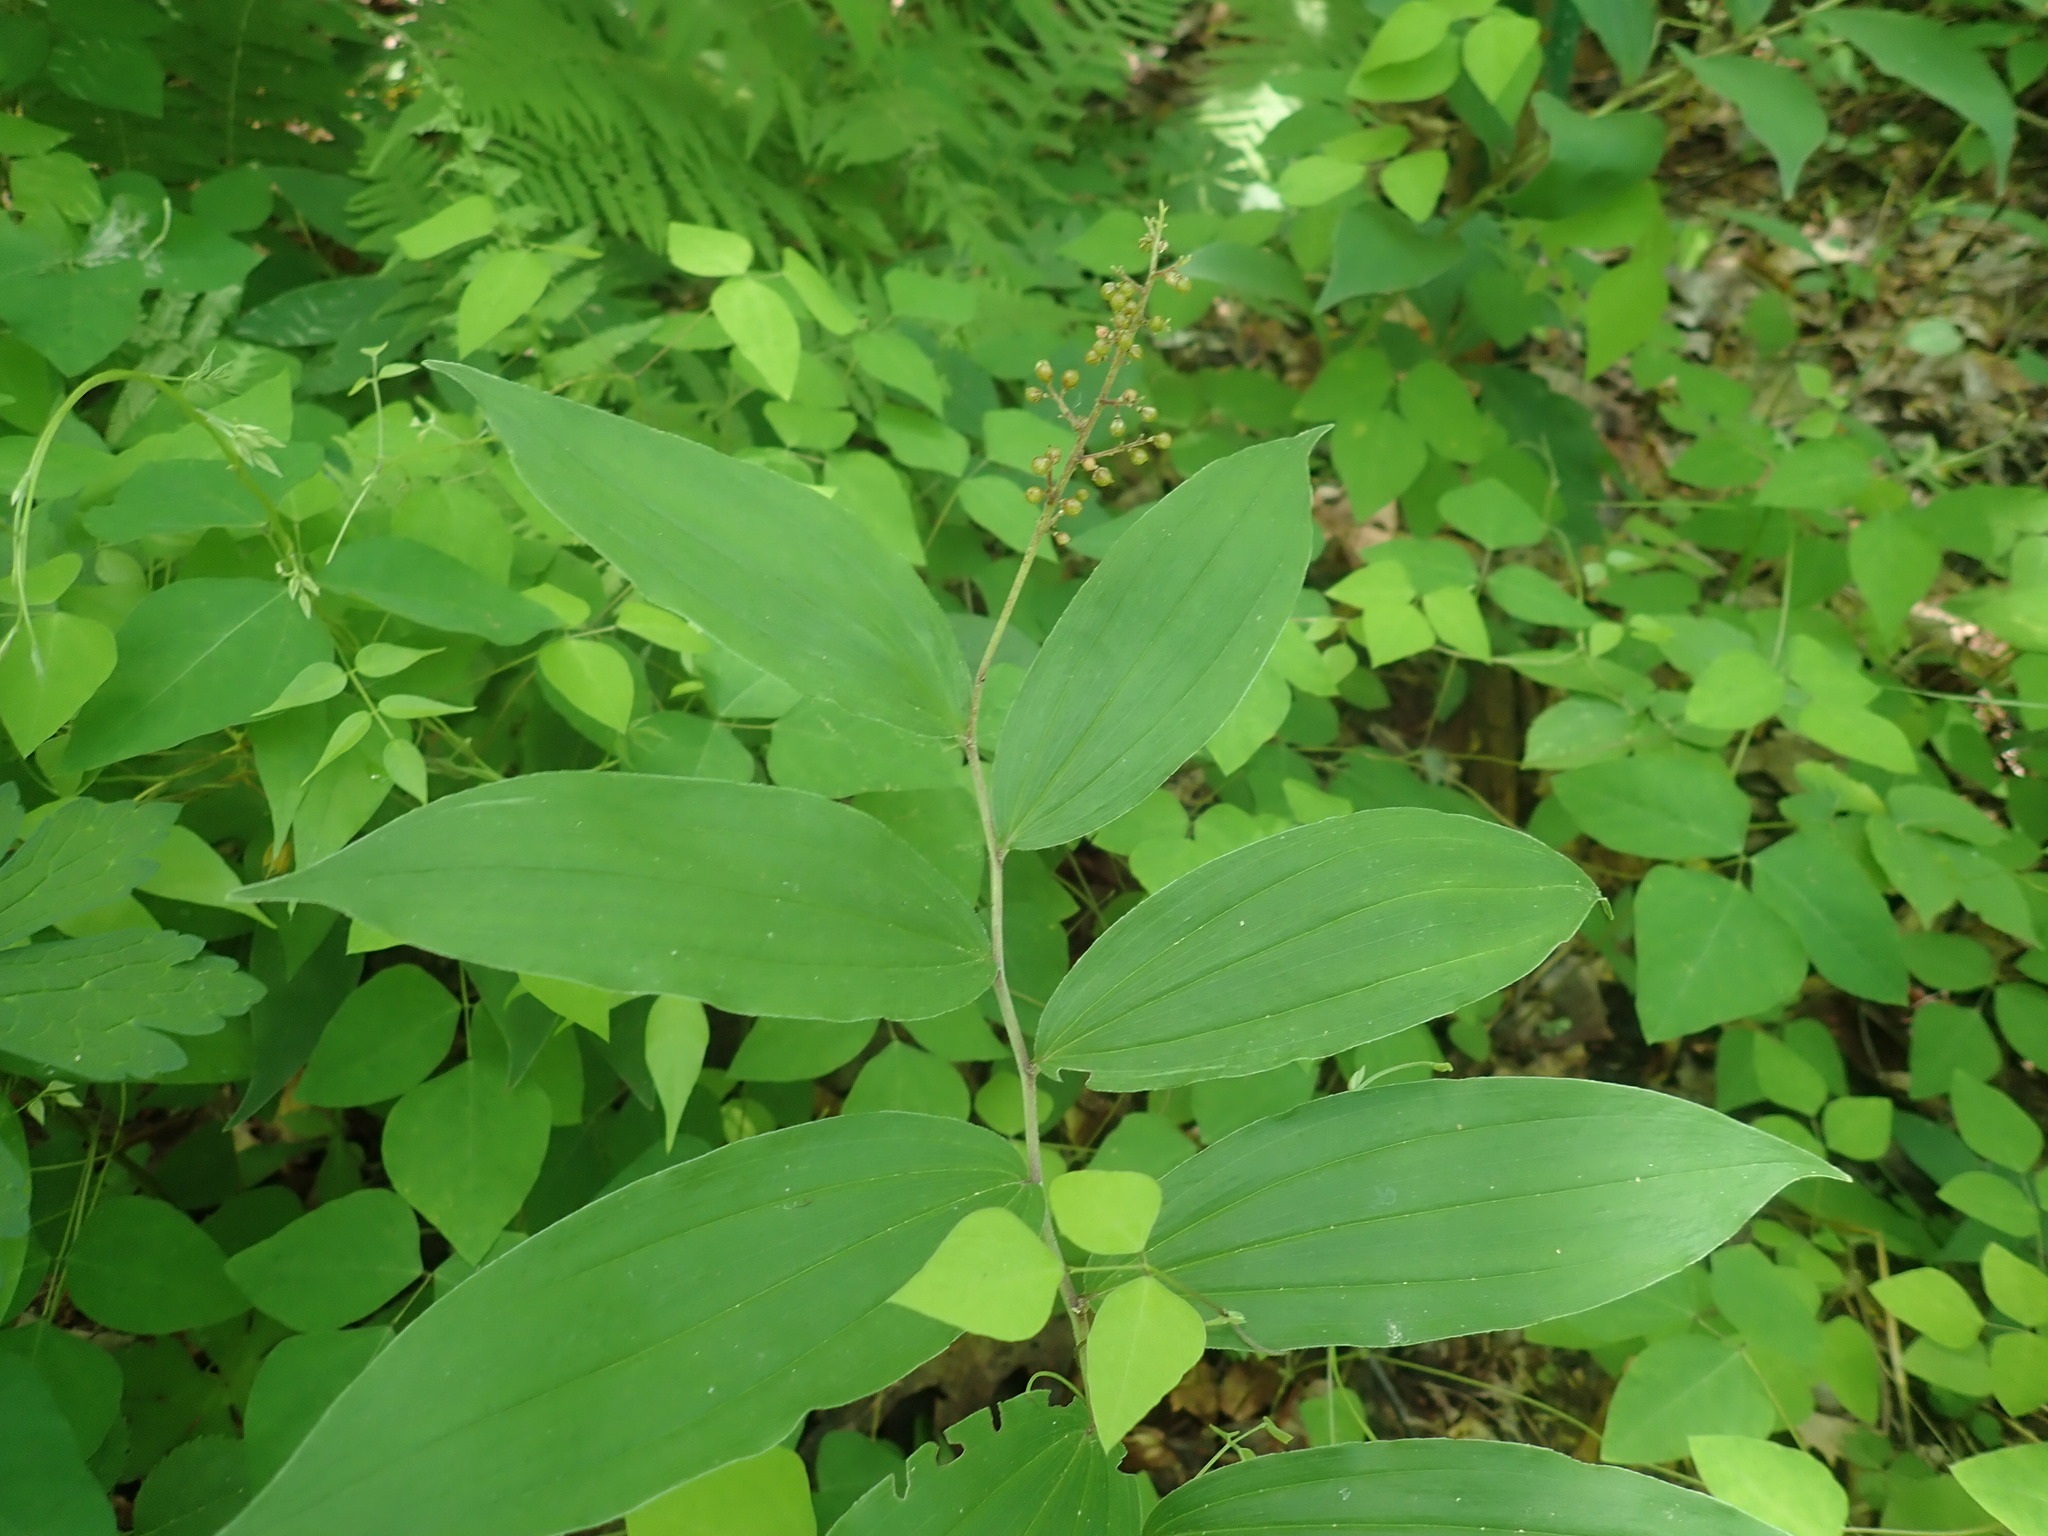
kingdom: Plantae
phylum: Tracheophyta
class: Liliopsida
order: Asparagales
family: Asparagaceae
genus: Maianthemum
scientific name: Maianthemum racemosum
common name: False spikenard
